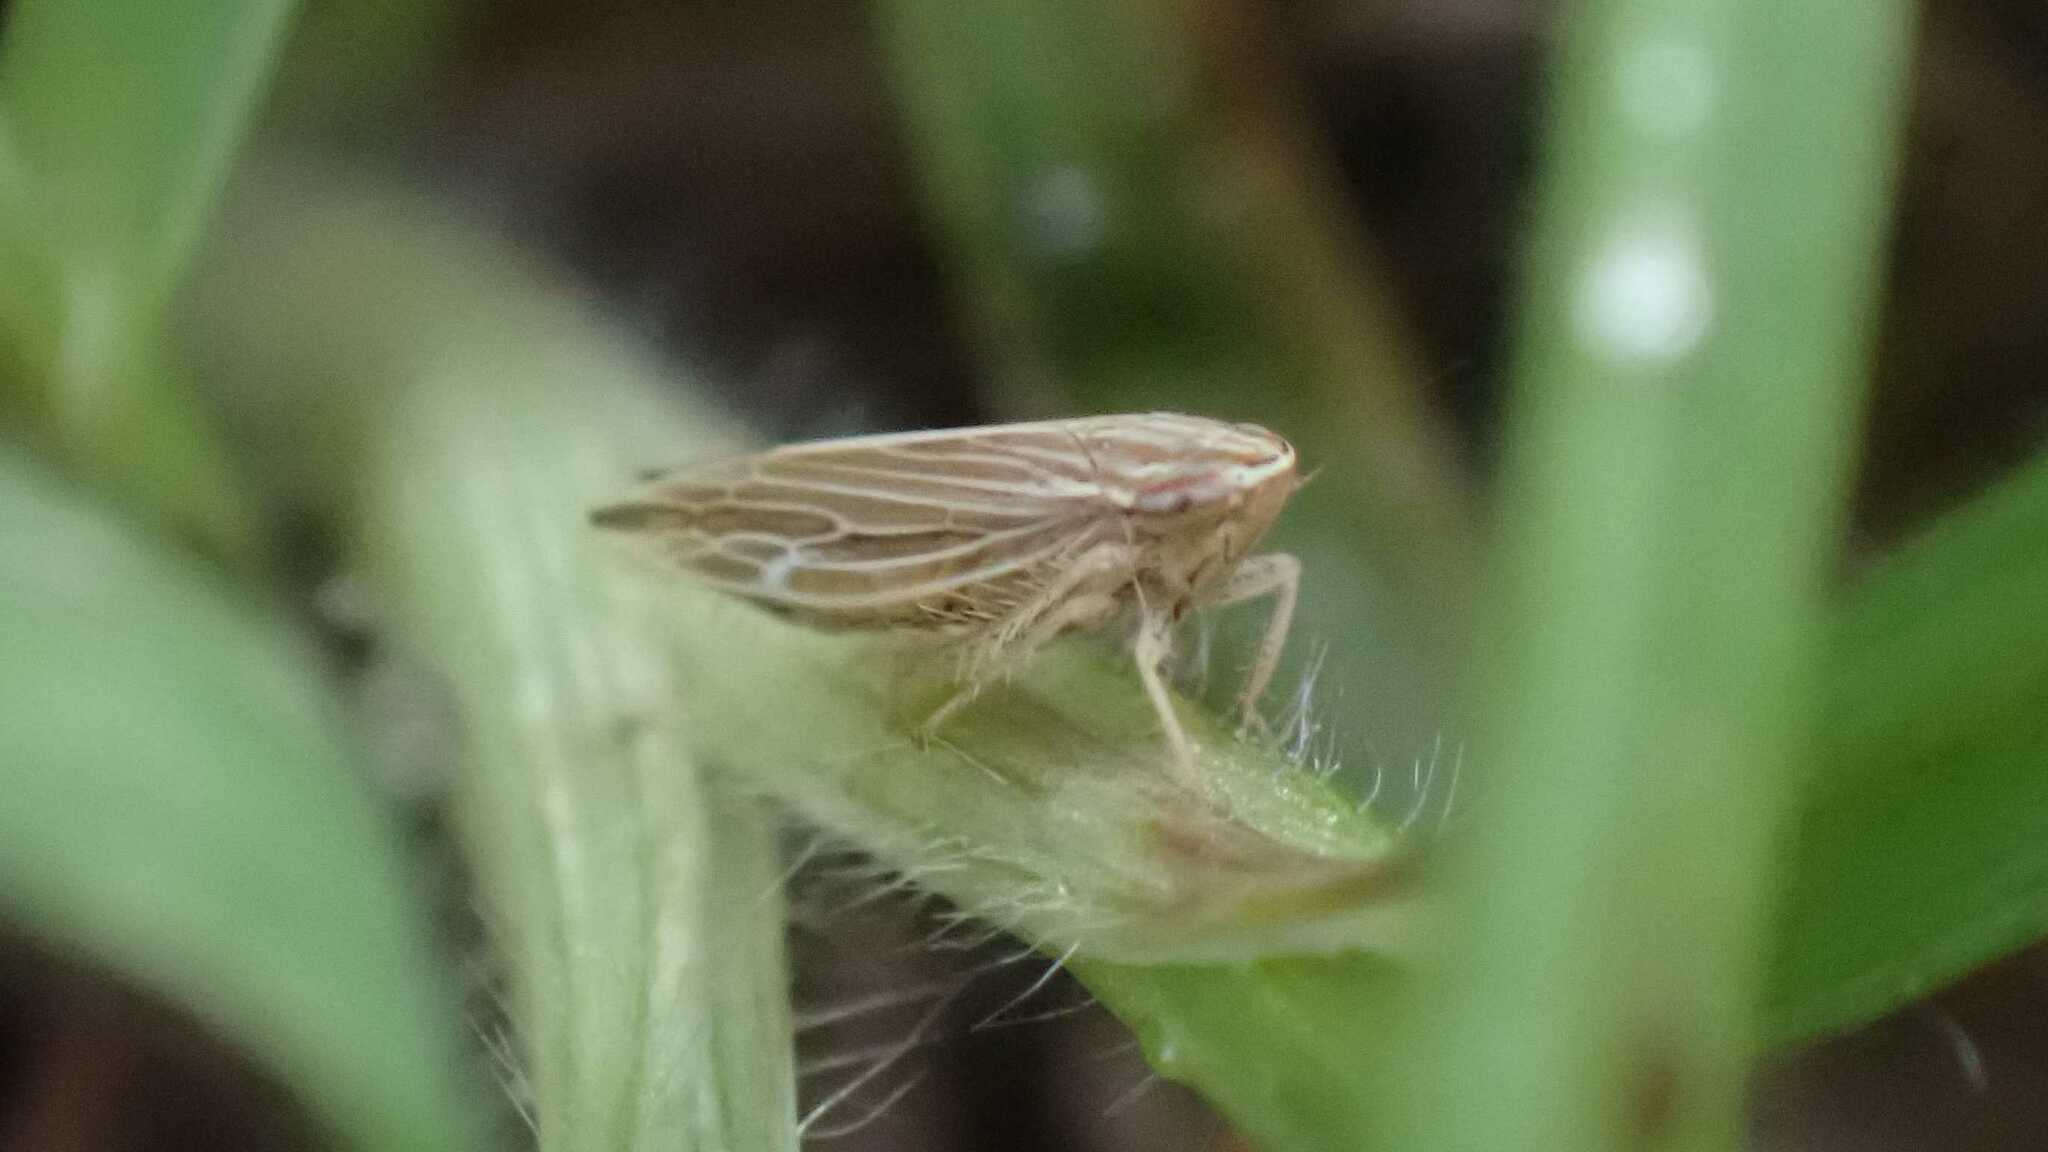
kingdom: Animalia
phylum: Arthropoda
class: Insecta
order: Hemiptera
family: Cicadellidae
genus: Mocydia
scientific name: Mocydia crocea
